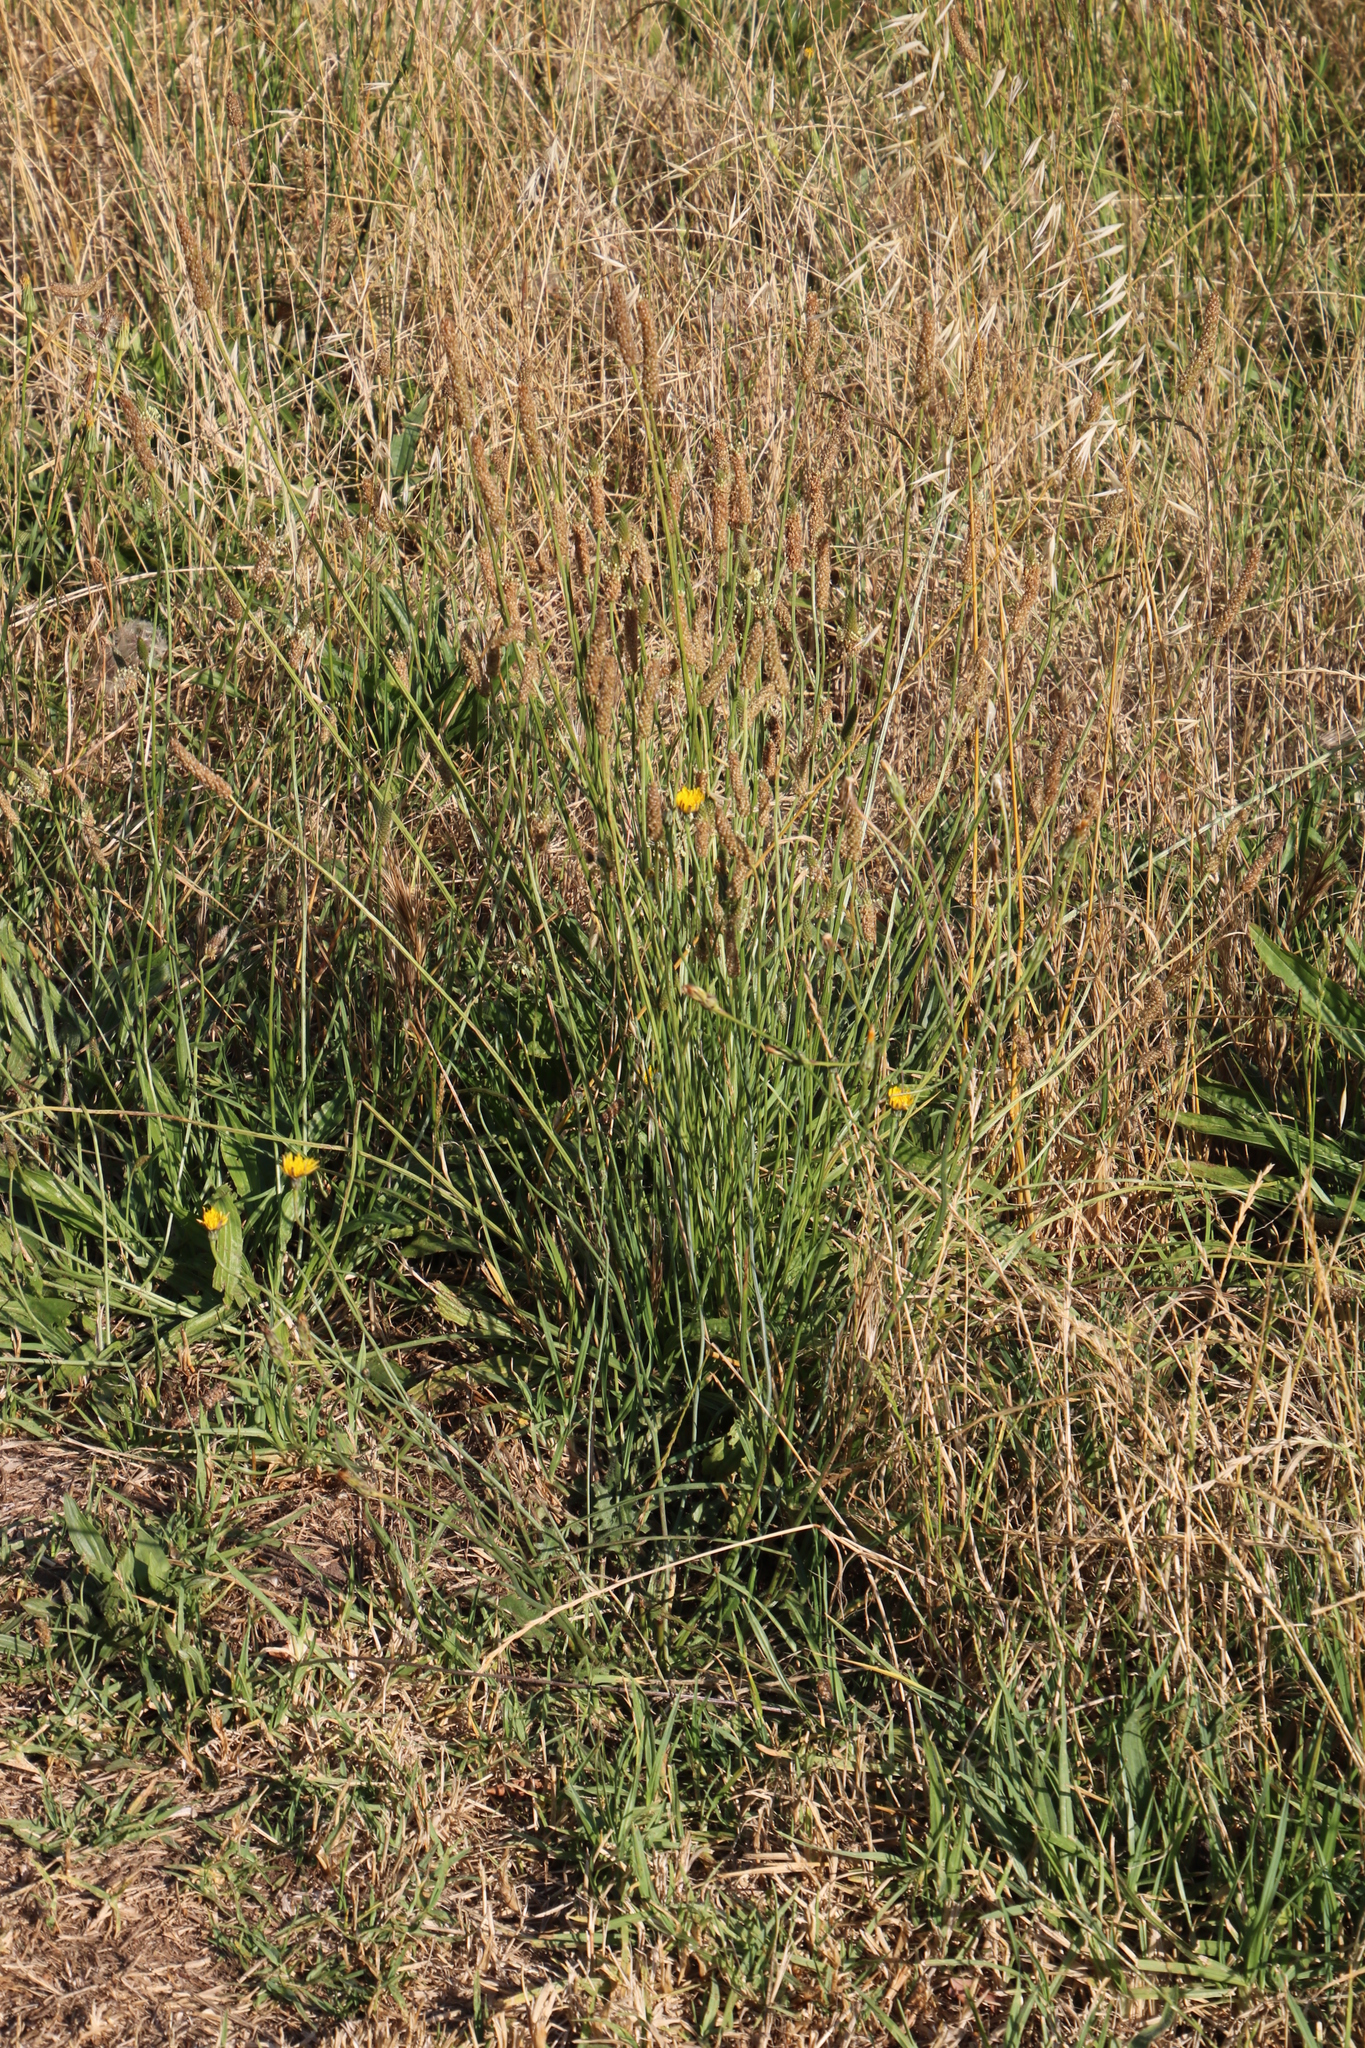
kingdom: Plantae
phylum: Tracheophyta
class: Magnoliopsida
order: Lamiales
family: Plantaginaceae
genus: Plantago
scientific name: Plantago lanceolata
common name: Ribwort plantain
